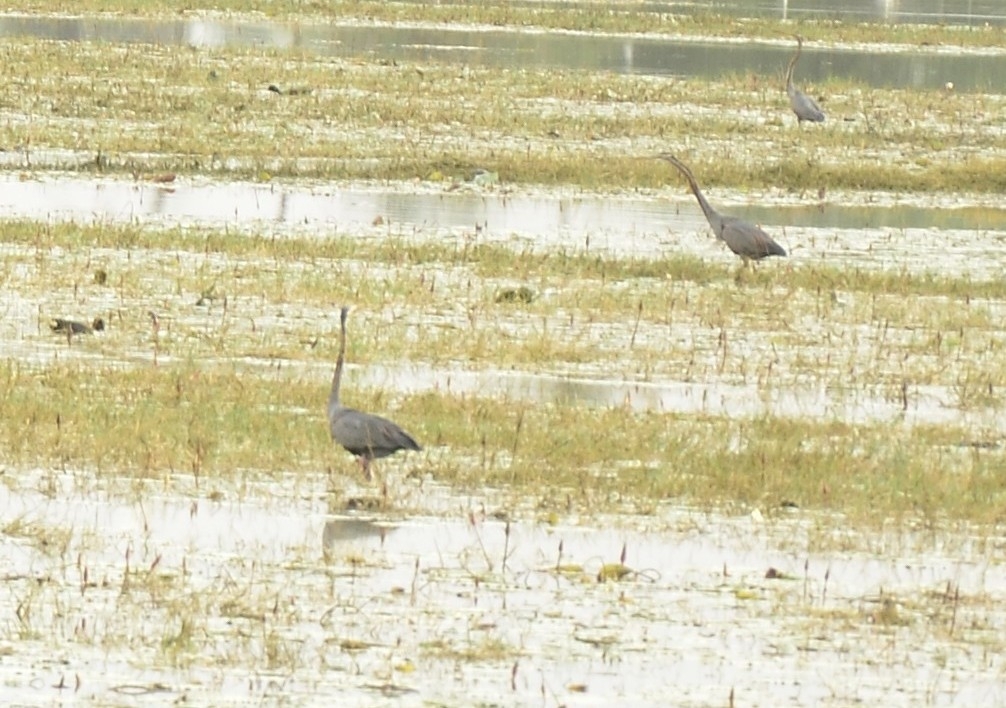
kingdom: Animalia
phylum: Chordata
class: Aves
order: Pelecaniformes
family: Ardeidae
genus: Ardea
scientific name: Ardea purpurea
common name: Purple heron
